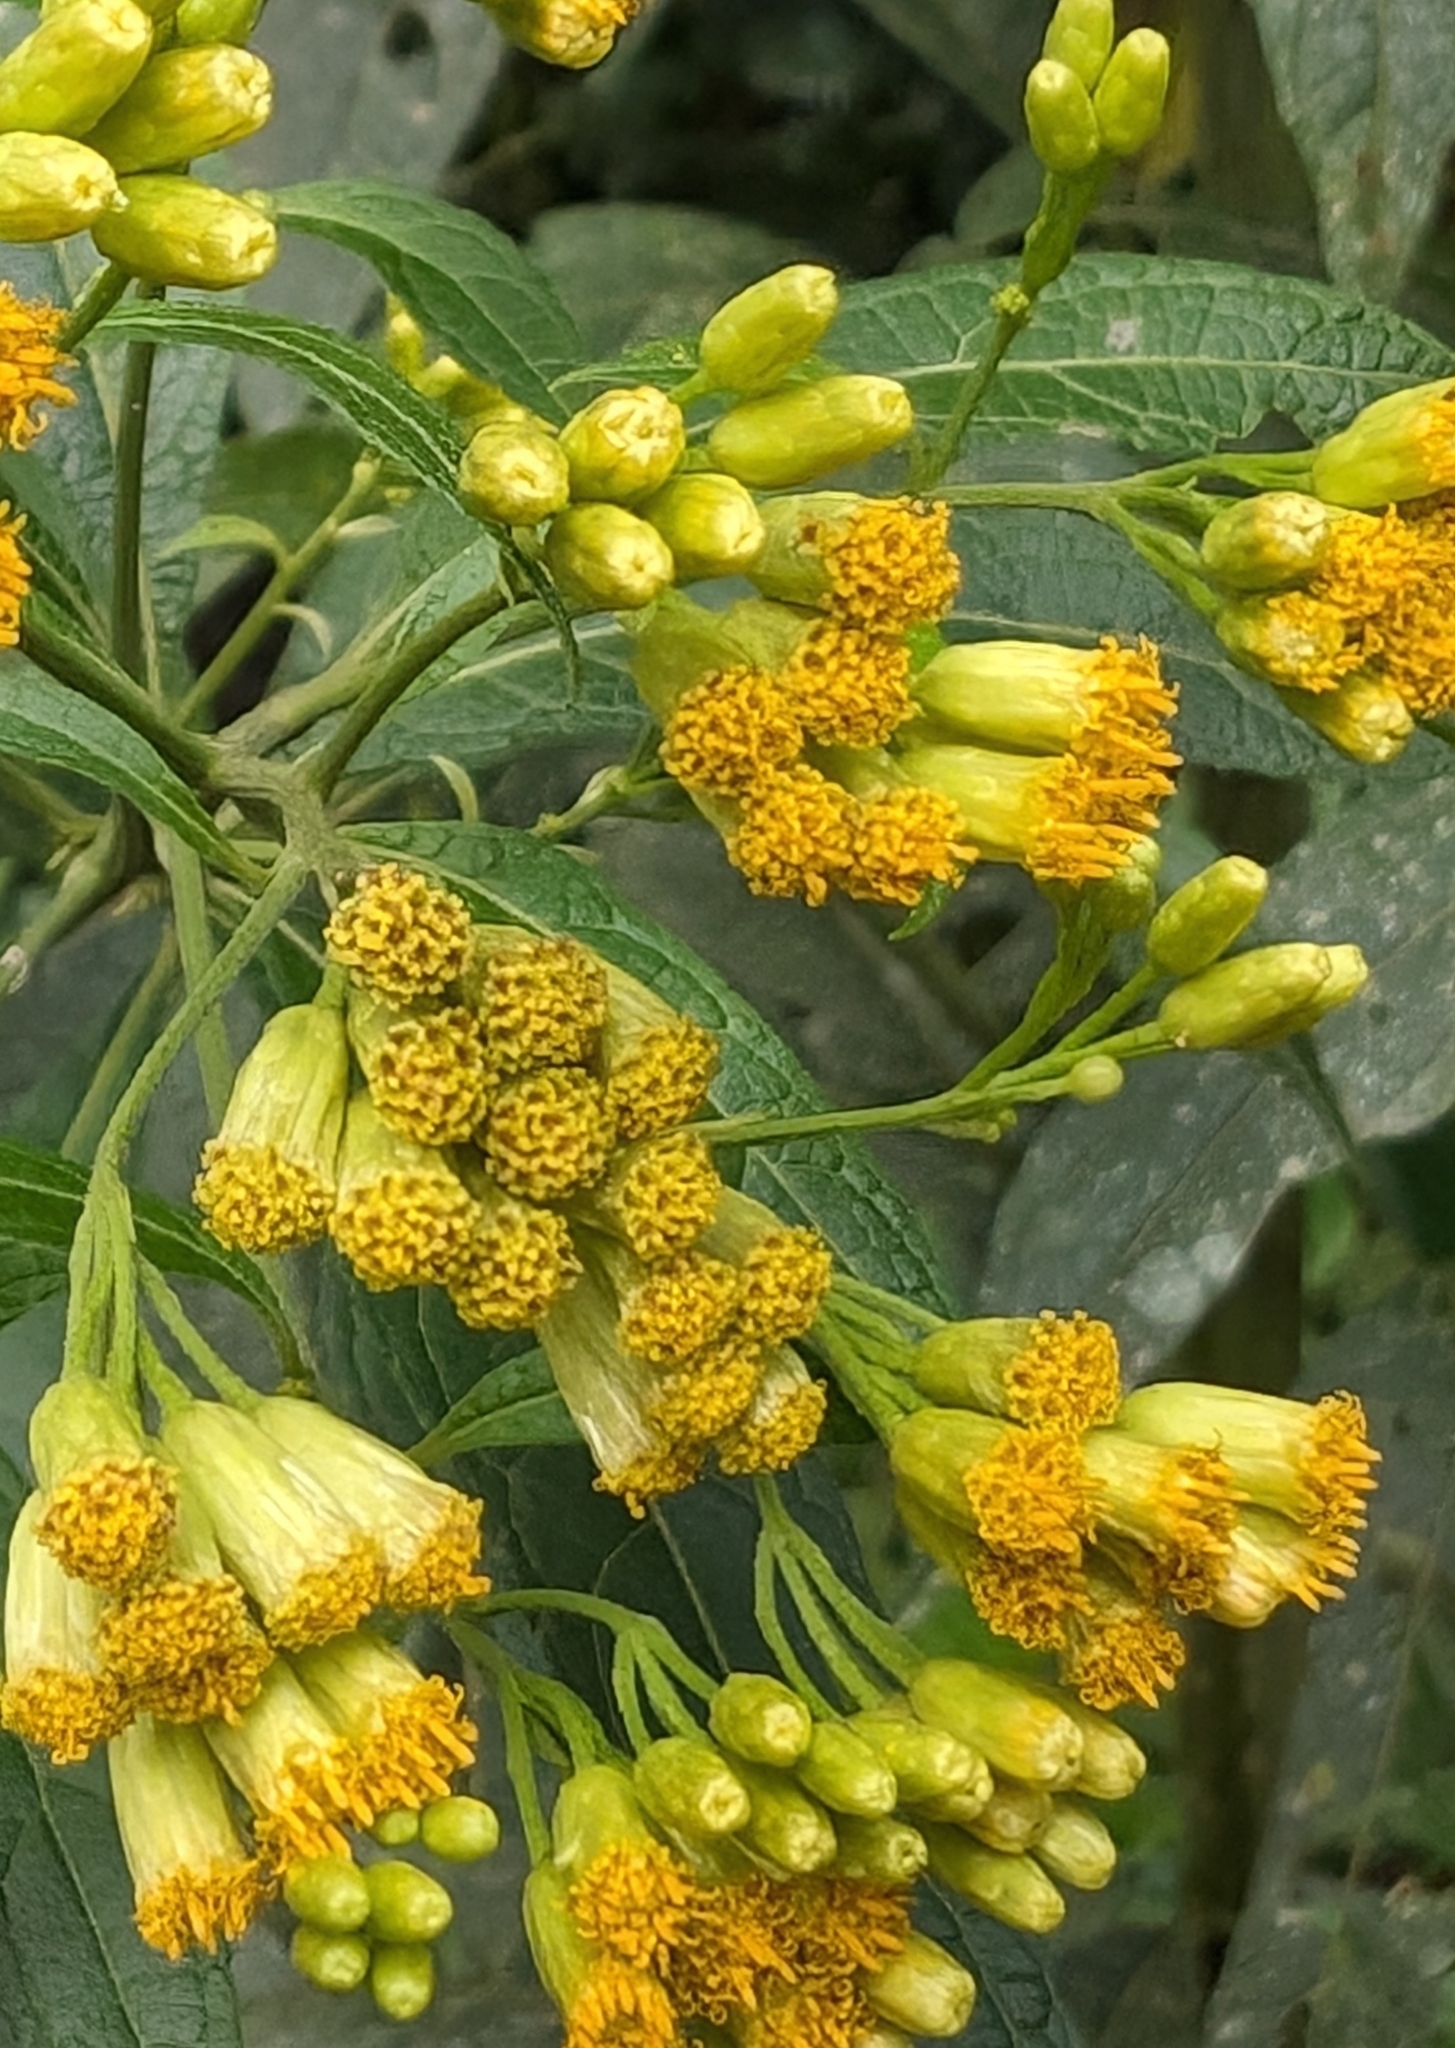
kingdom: Plantae
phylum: Tracheophyta
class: Magnoliopsida
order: Asterales
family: Asteraceae
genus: Neurolaena
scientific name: Neurolaena lobata
